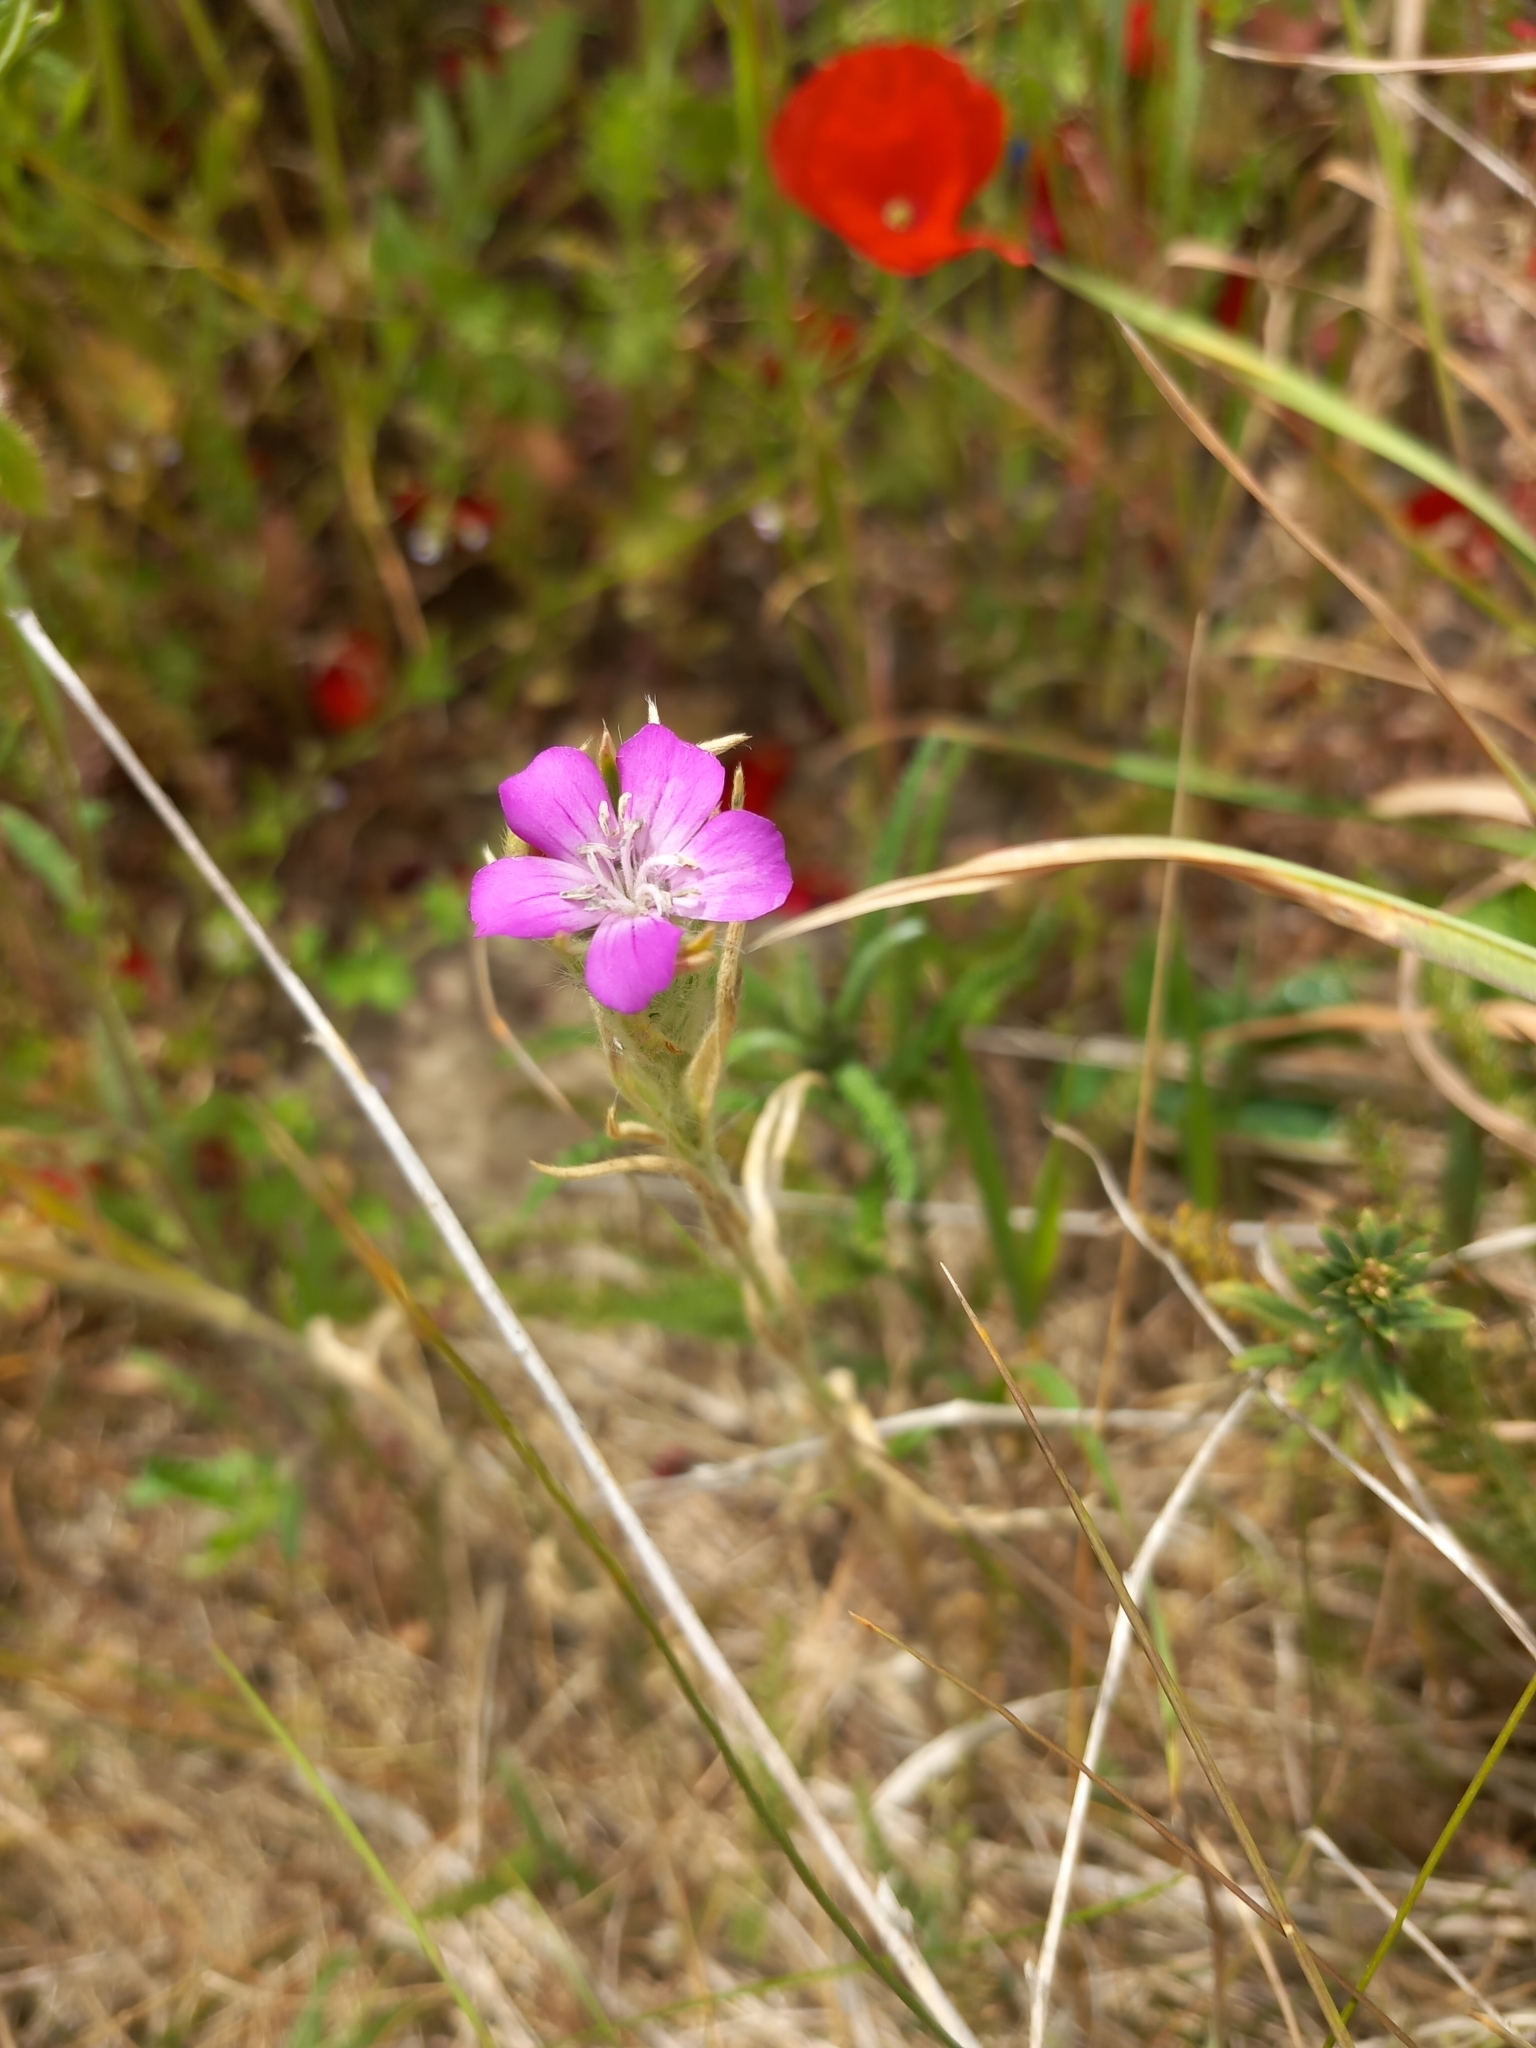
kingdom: Plantae
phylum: Tracheophyta
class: Magnoliopsida
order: Caryophyllales
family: Caryophyllaceae
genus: Agrostemma
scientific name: Agrostemma githago
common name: Common corncockle
